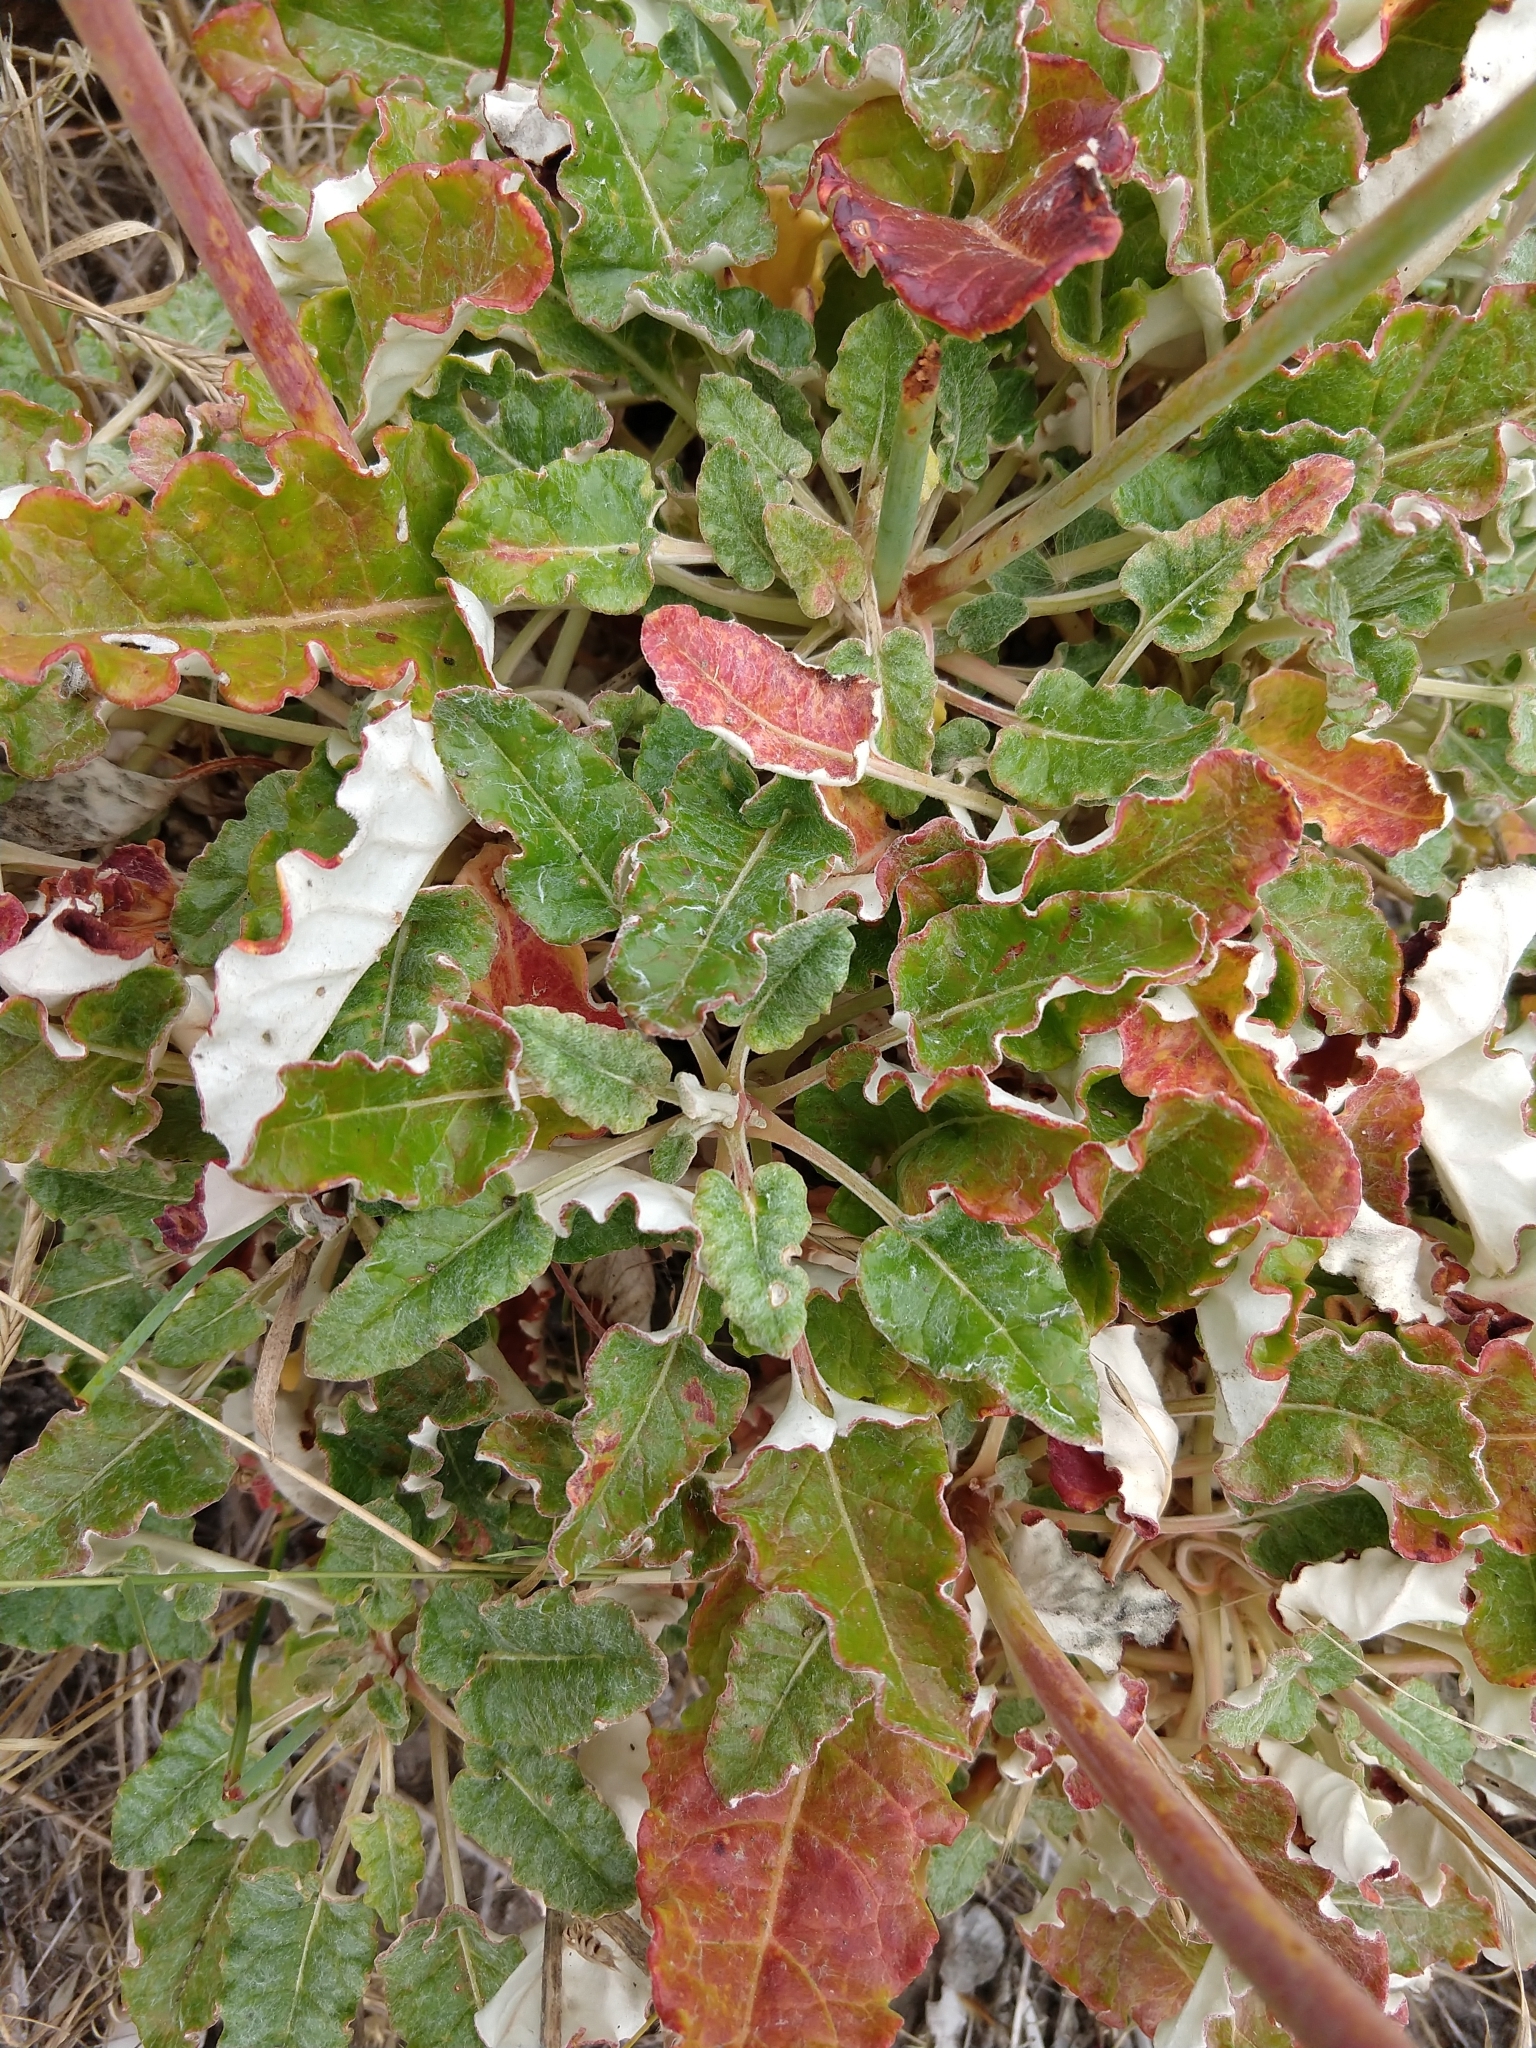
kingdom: Plantae
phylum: Tracheophyta
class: Magnoliopsida
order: Caryophyllales
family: Polygonaceae
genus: Eriogonum
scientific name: Eriogonum grande
